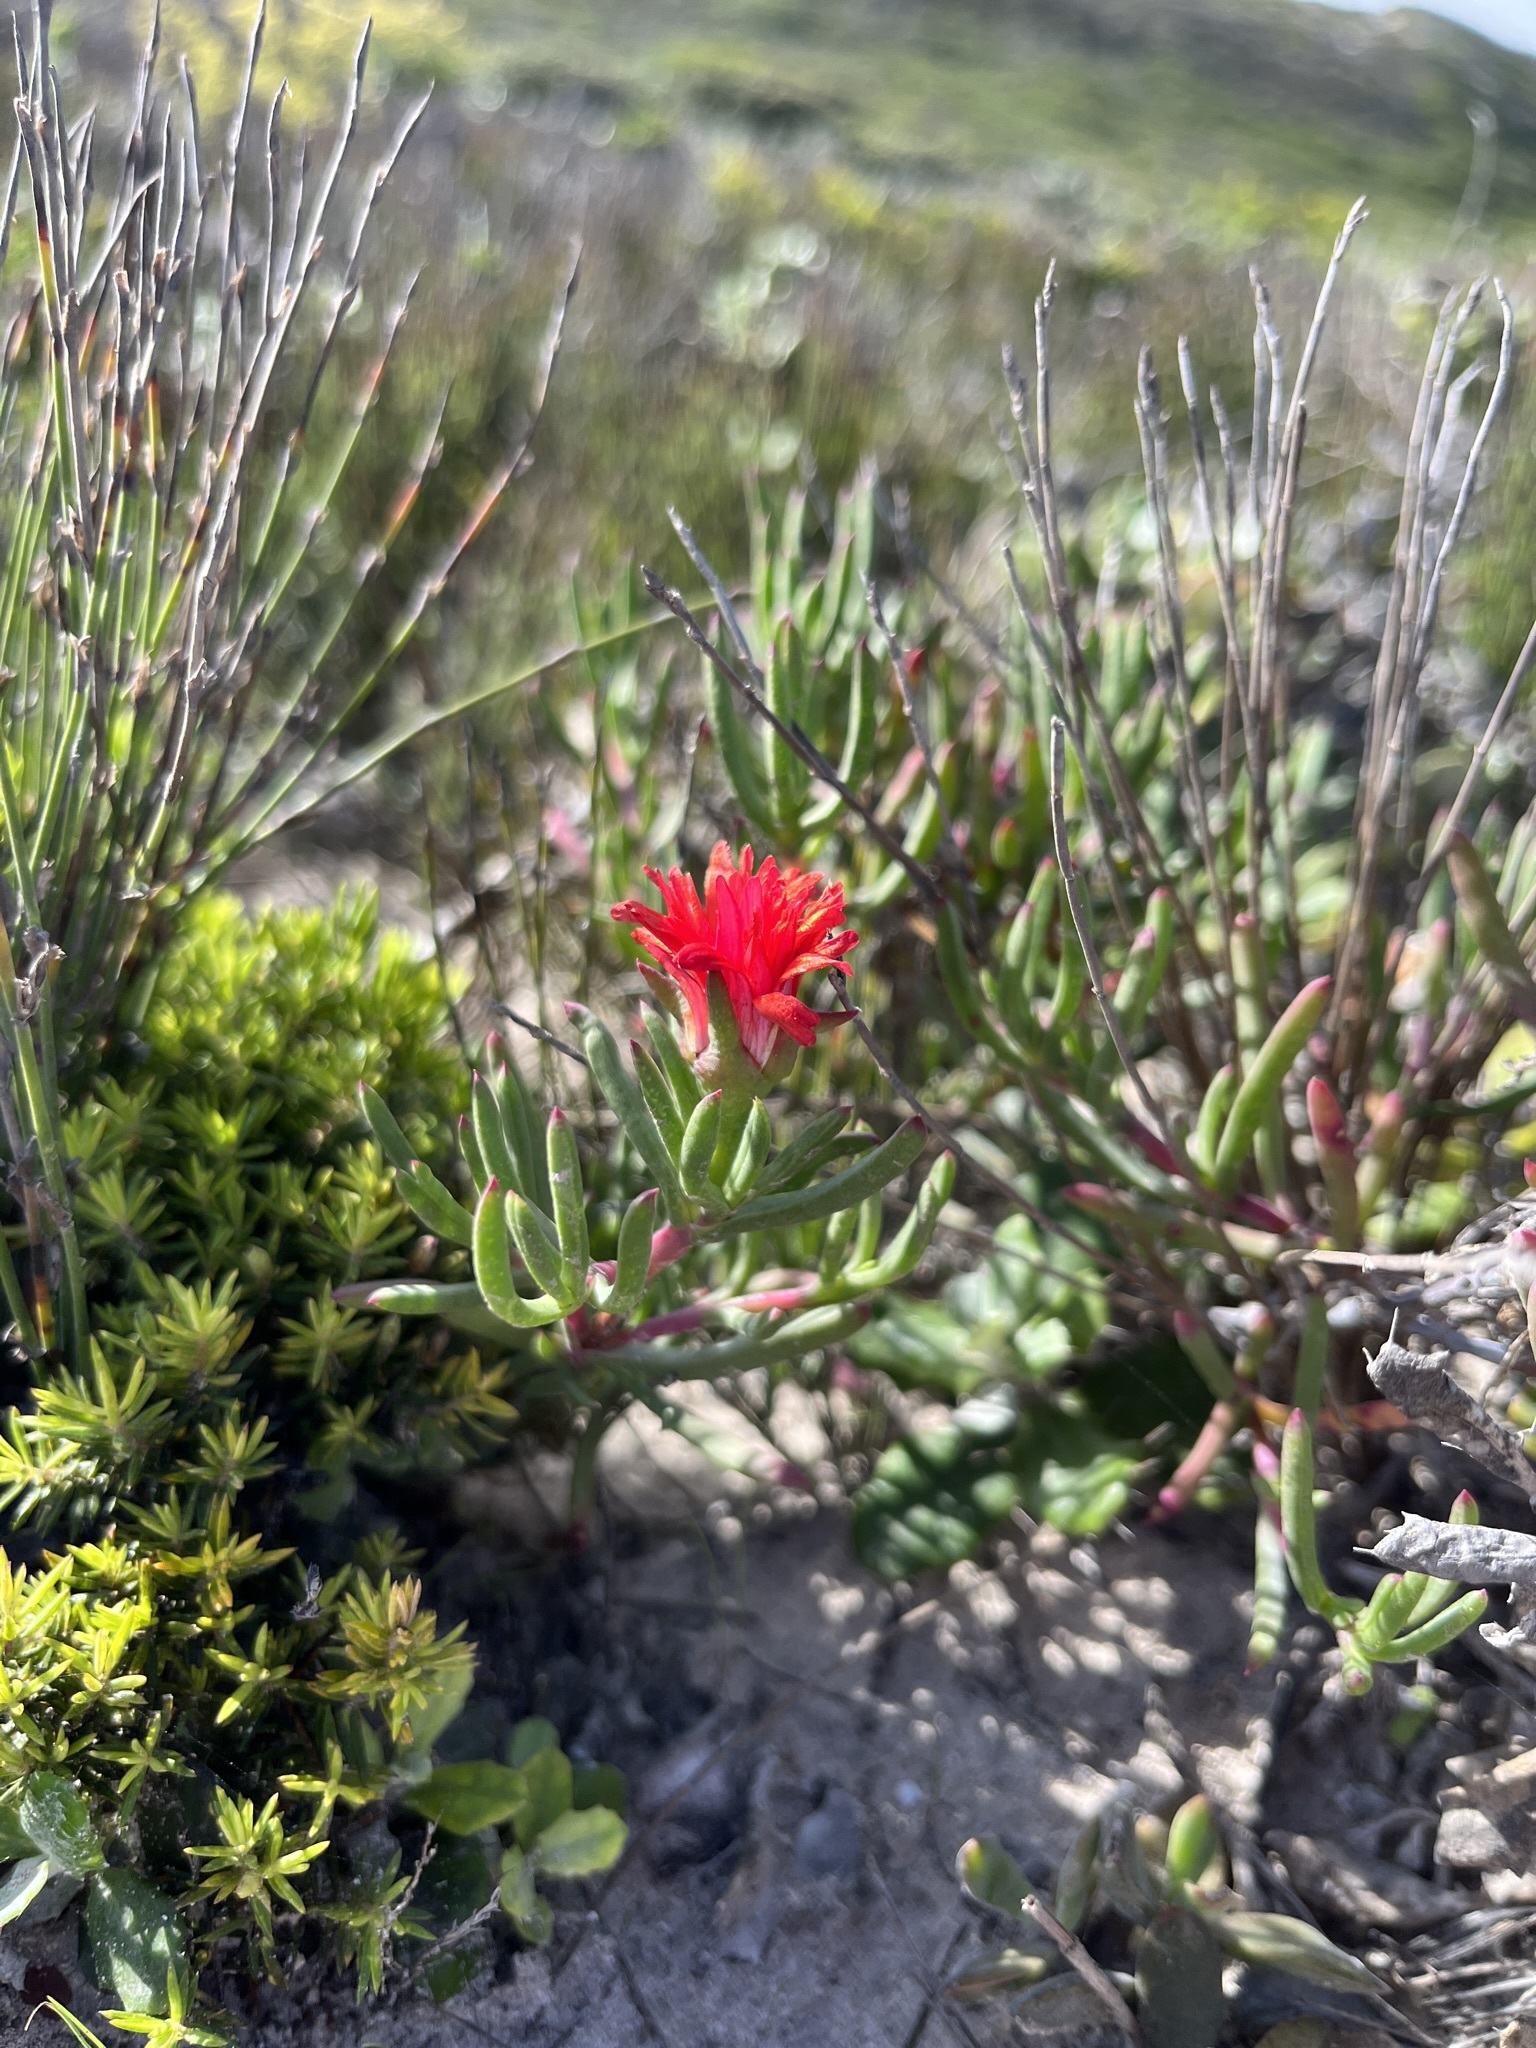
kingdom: Plantae
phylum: Tracheophyta
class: Magnoliopsida
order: Caryophyllales
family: Aizoaceae
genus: Lampranthus
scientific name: Lampranthus fergusoniae
